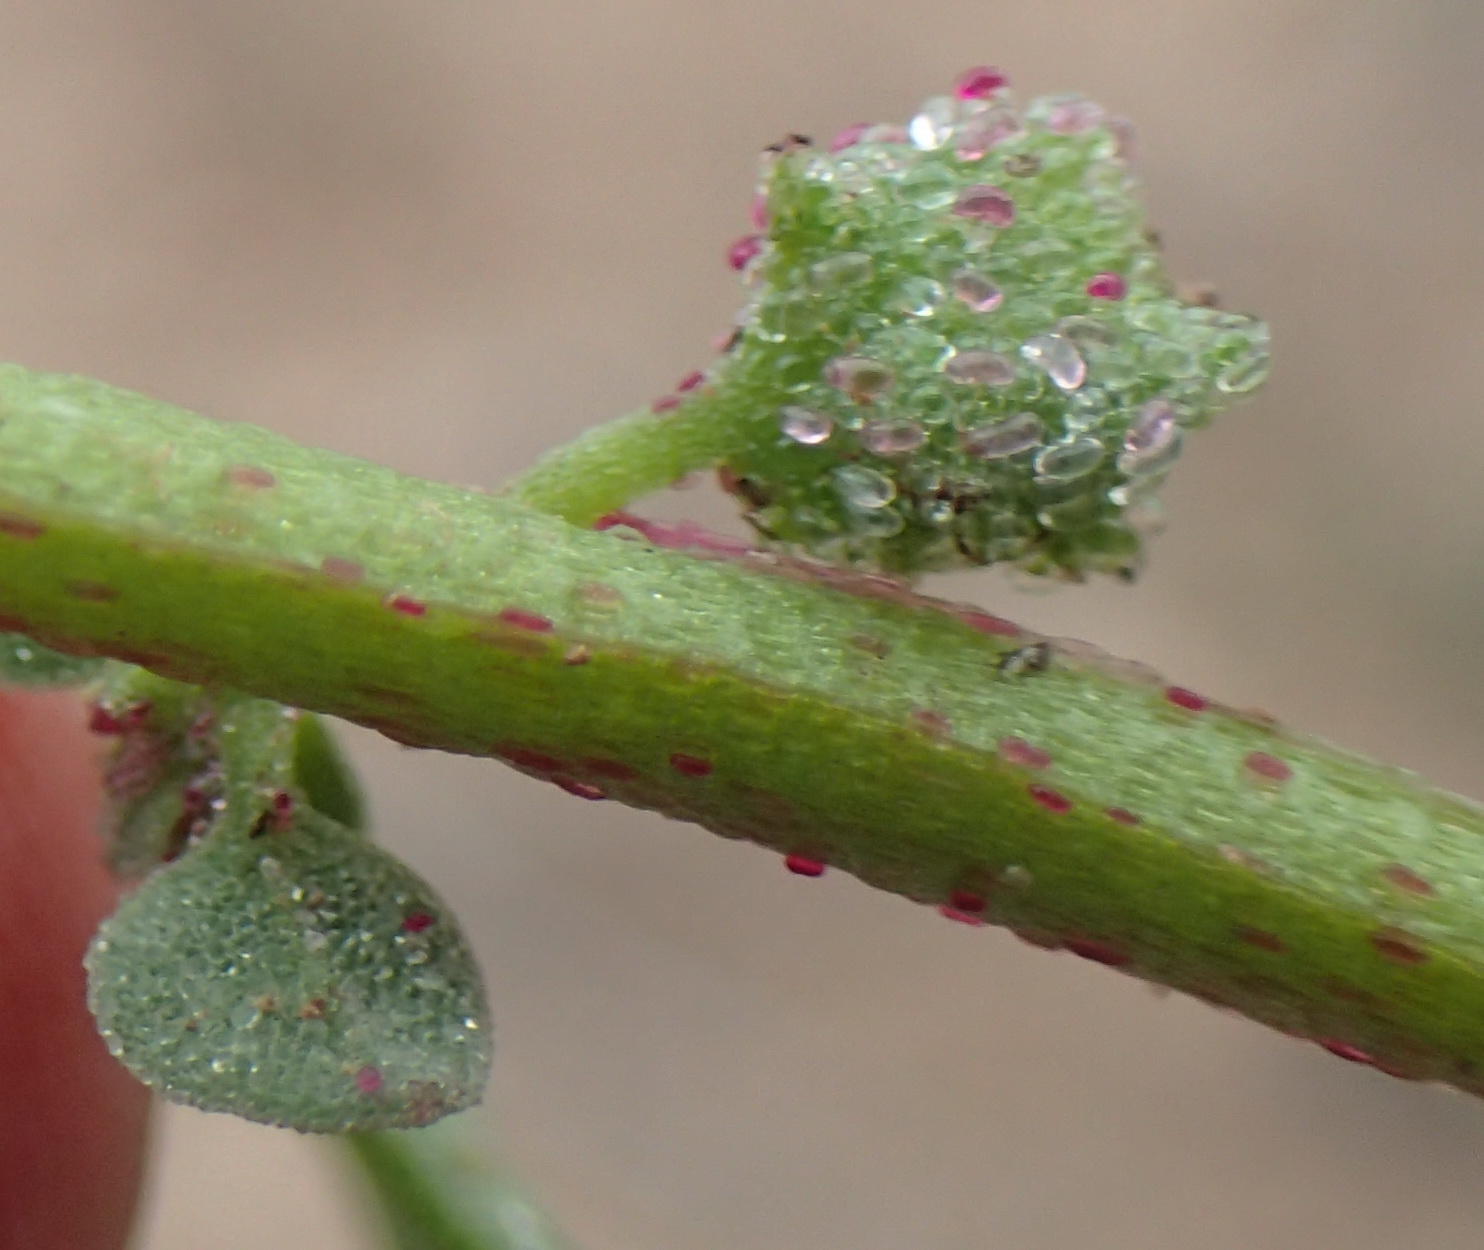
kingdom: Plantae
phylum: Tracheophyta
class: Magnoliopsida
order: Caryophyllales
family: Aizoaceae
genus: Tetragonia
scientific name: Tetragonia echinata
